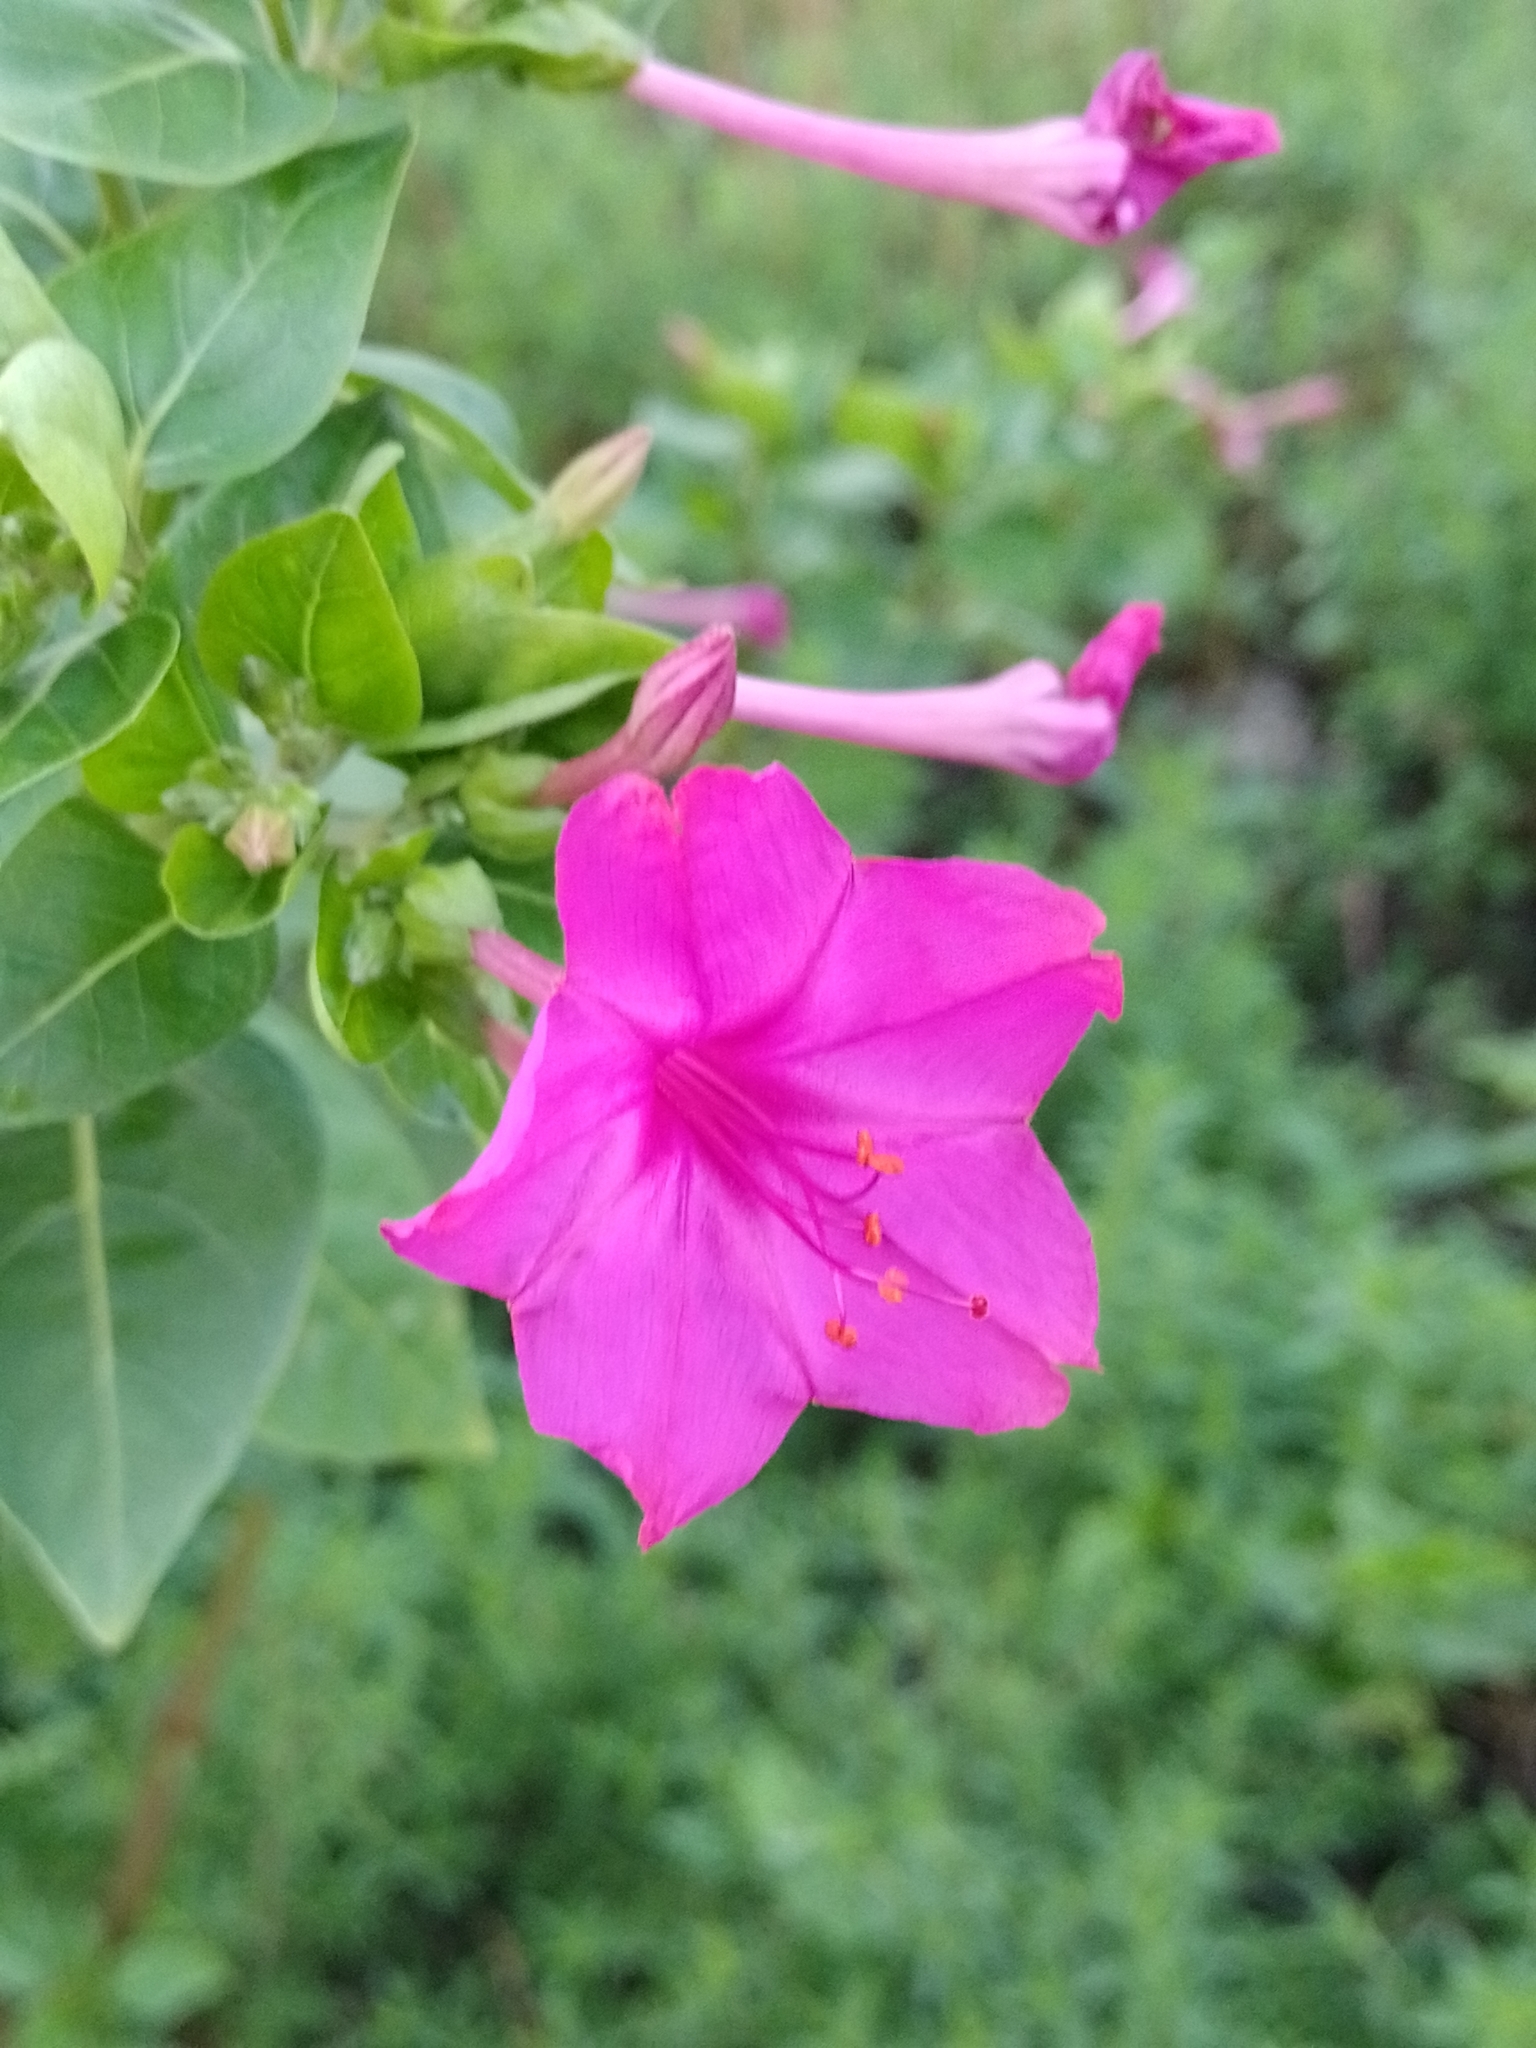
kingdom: Plantae
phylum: Tracheophyta
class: Magnoliopsida
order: Caryophyllales
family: Nyctaginaceae
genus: Mirabilis
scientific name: Mirabilis jalapa
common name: Marvel-of-peru
